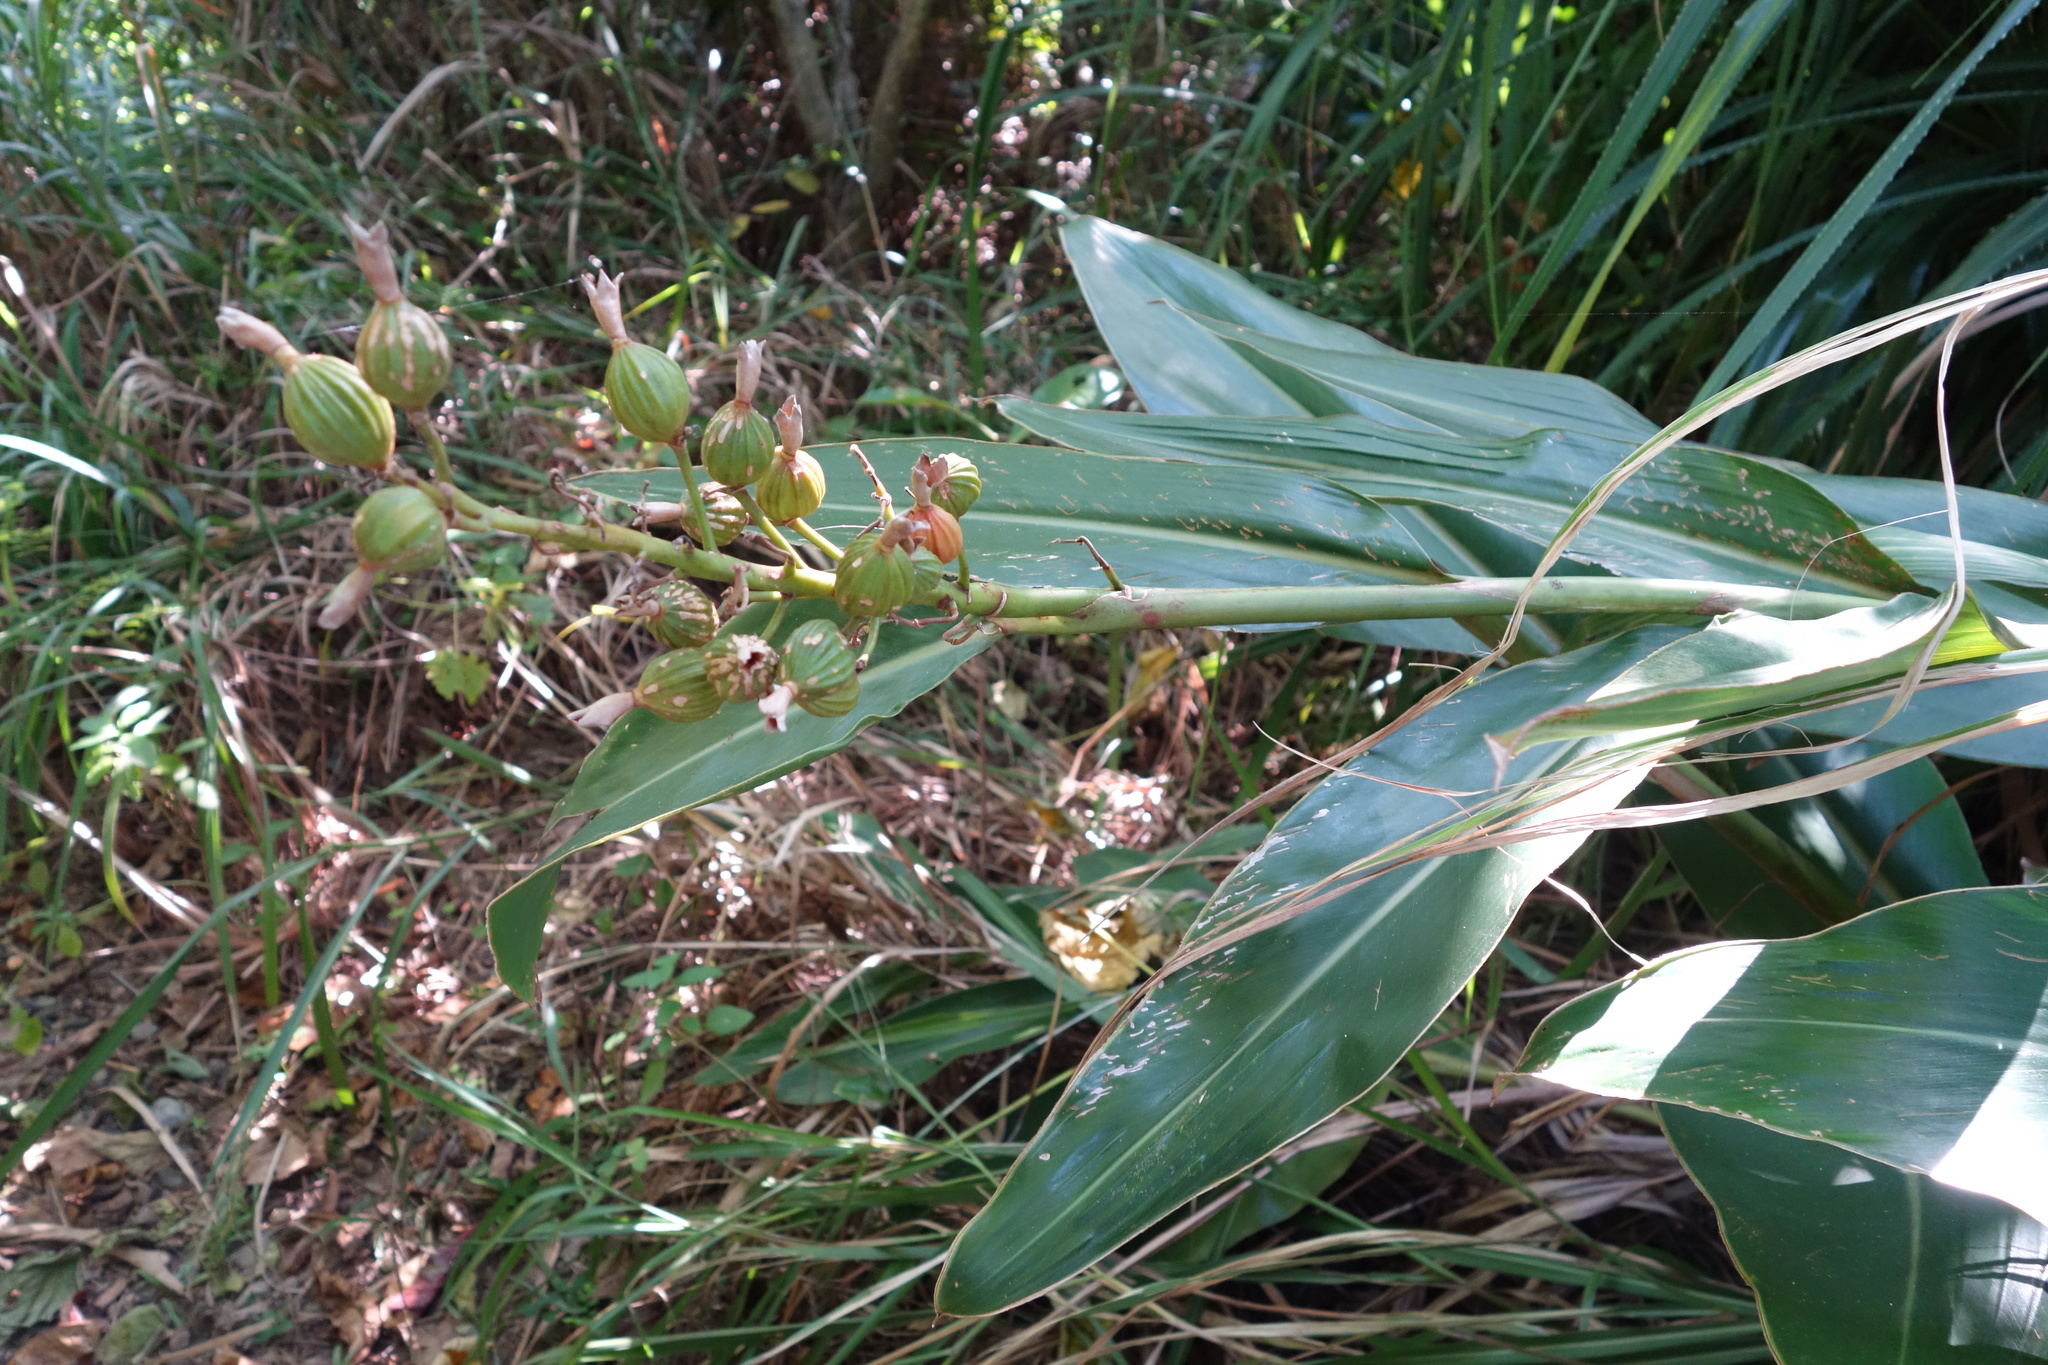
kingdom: Plantae
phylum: Tracheophyta
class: Liliopsida
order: Zingiberales
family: Zingiberaceae
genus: Alpinia
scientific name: Alpinia koshunensis
